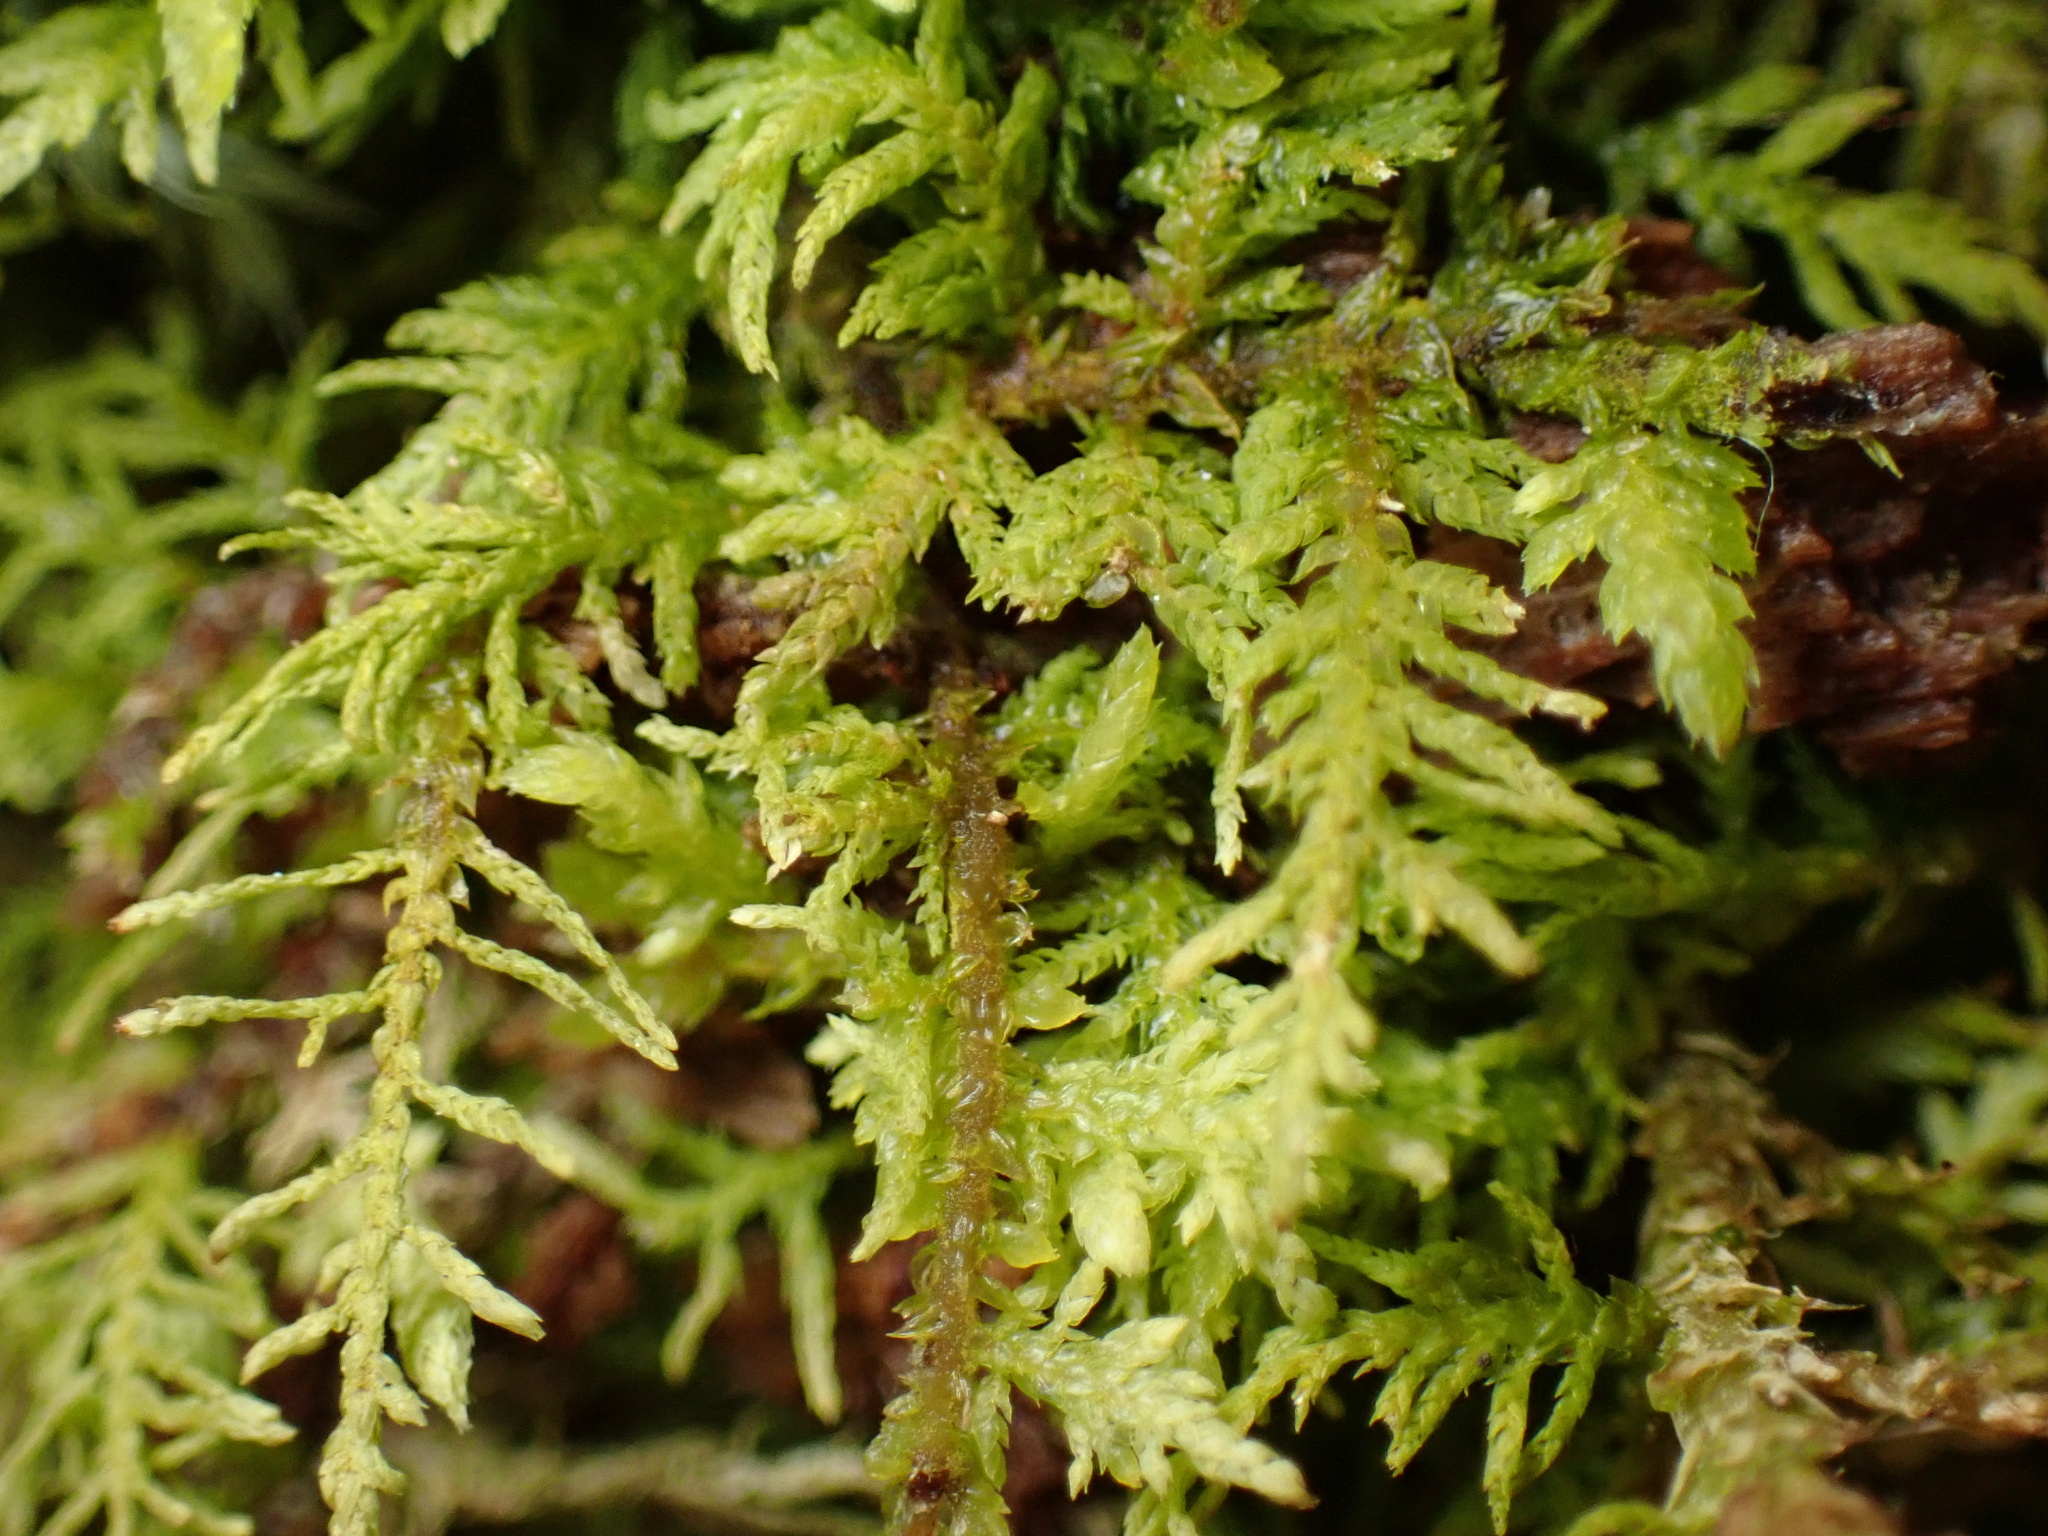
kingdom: Plantae
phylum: Bryophyta
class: Bryopsida
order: Hypnales
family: Thuidiaceae
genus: Thuidium
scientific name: Thuidium delicatulum
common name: Delicate fern moss
